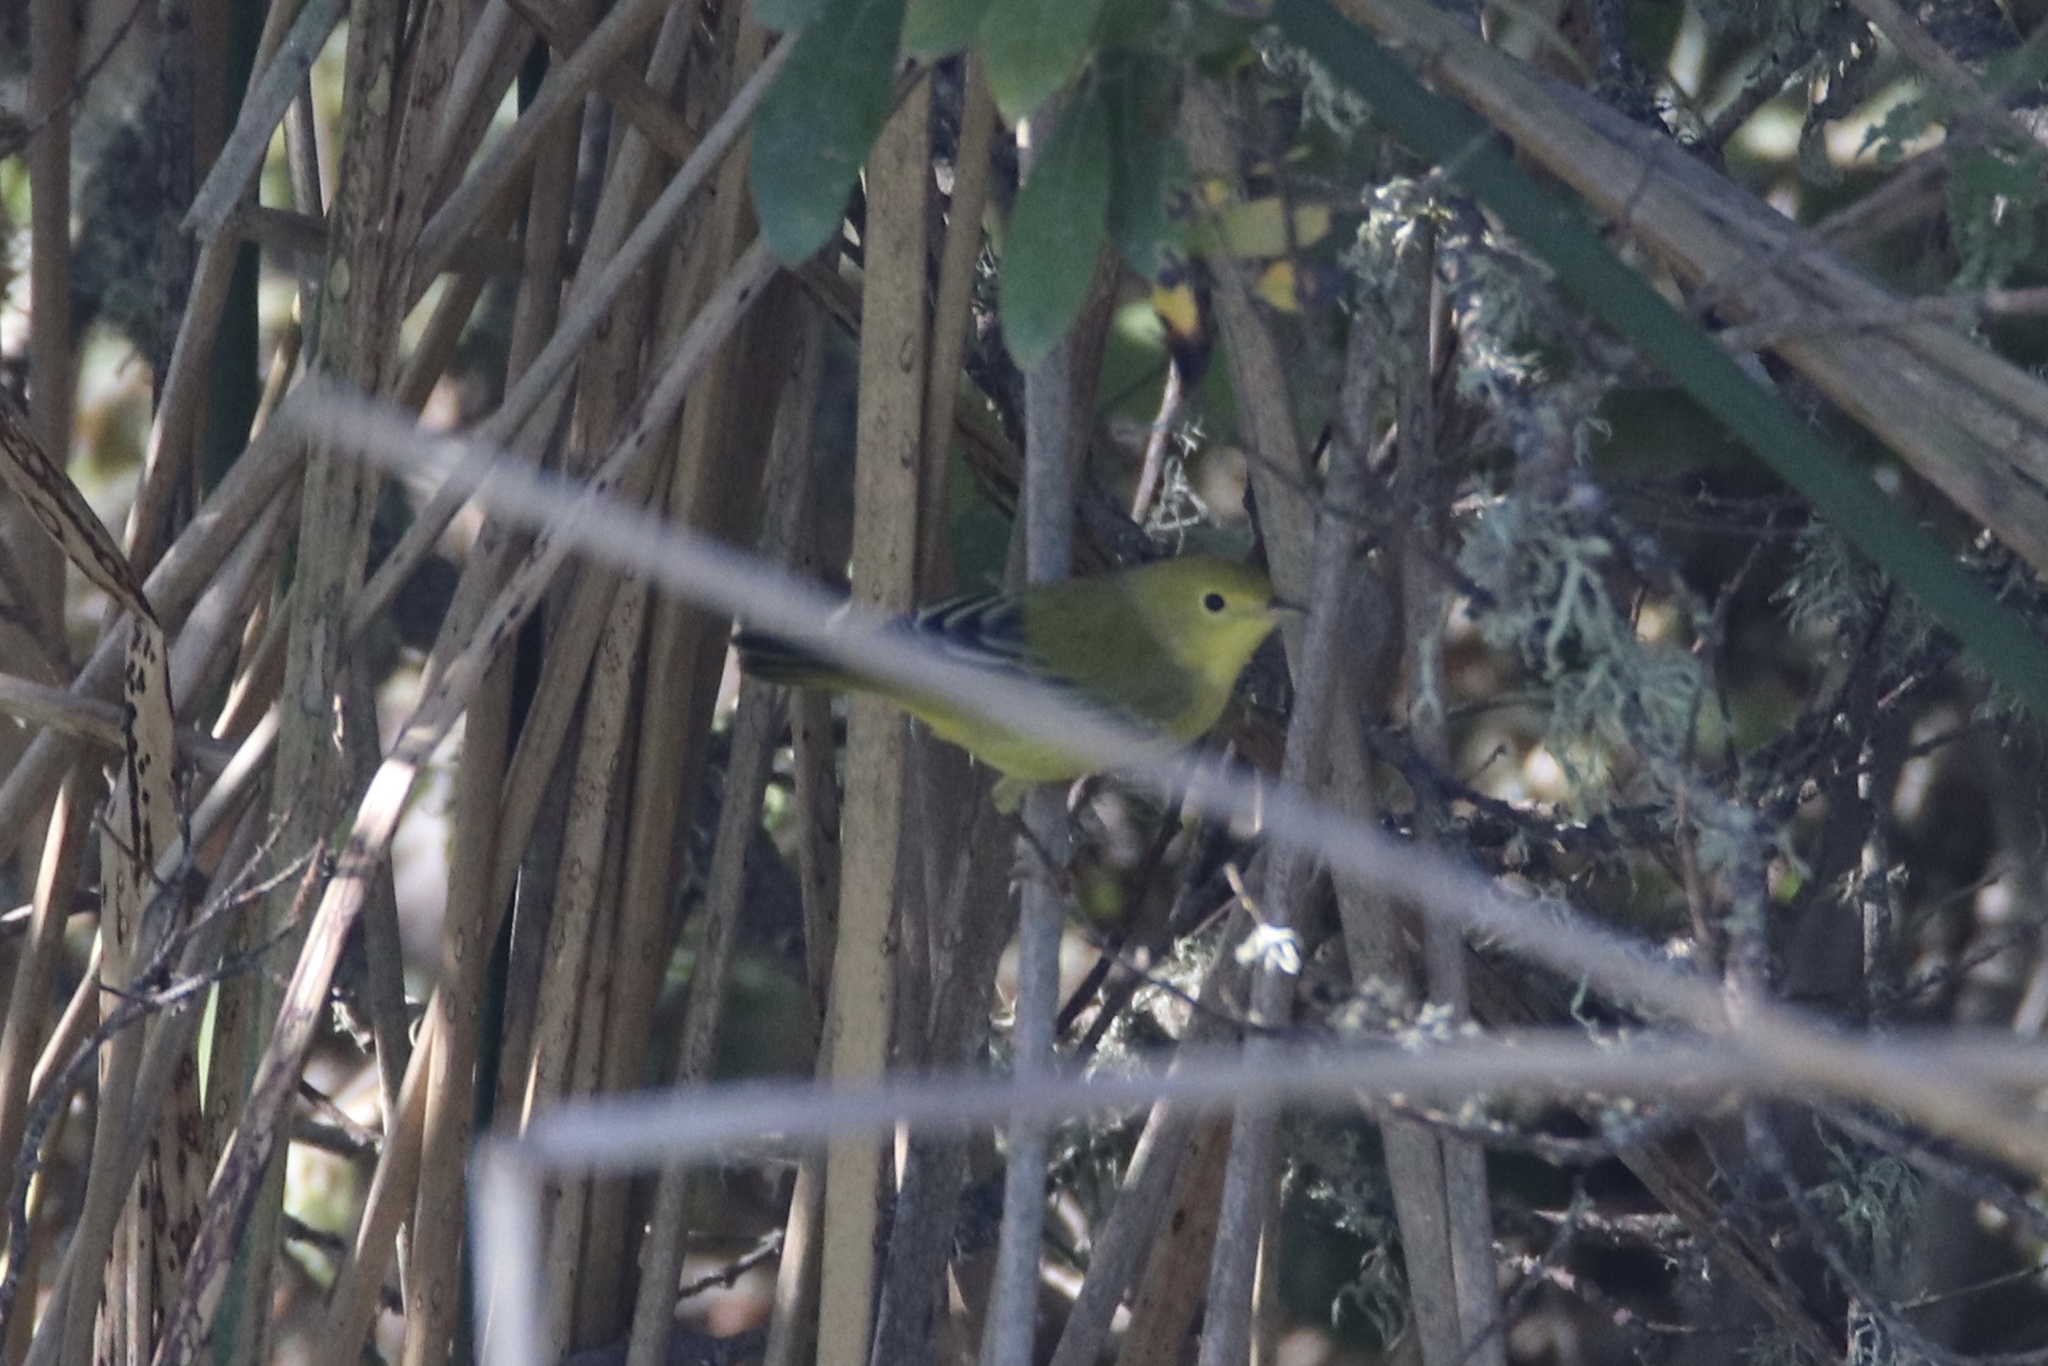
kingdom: Animalia
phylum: Chordata
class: Aves
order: Passeriformes
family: Parulidae
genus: Setophaga
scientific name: Setophaga petechia
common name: Yellow warbler
